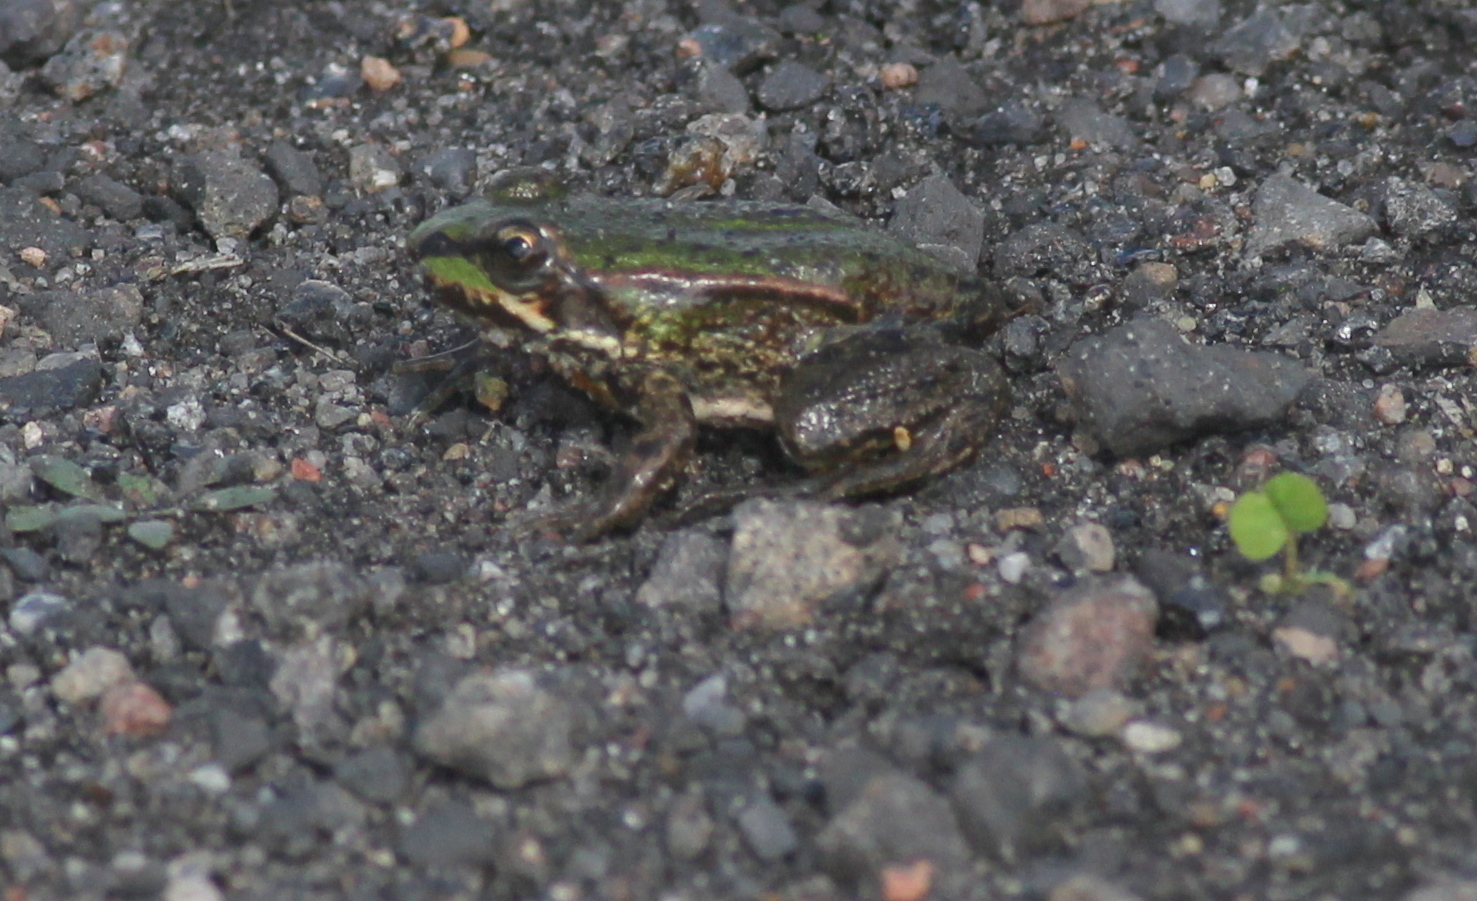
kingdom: Animalia
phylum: Chordata
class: Amphibia
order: Anura
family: Ranidae
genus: Pelophylax
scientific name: Pelophylax
